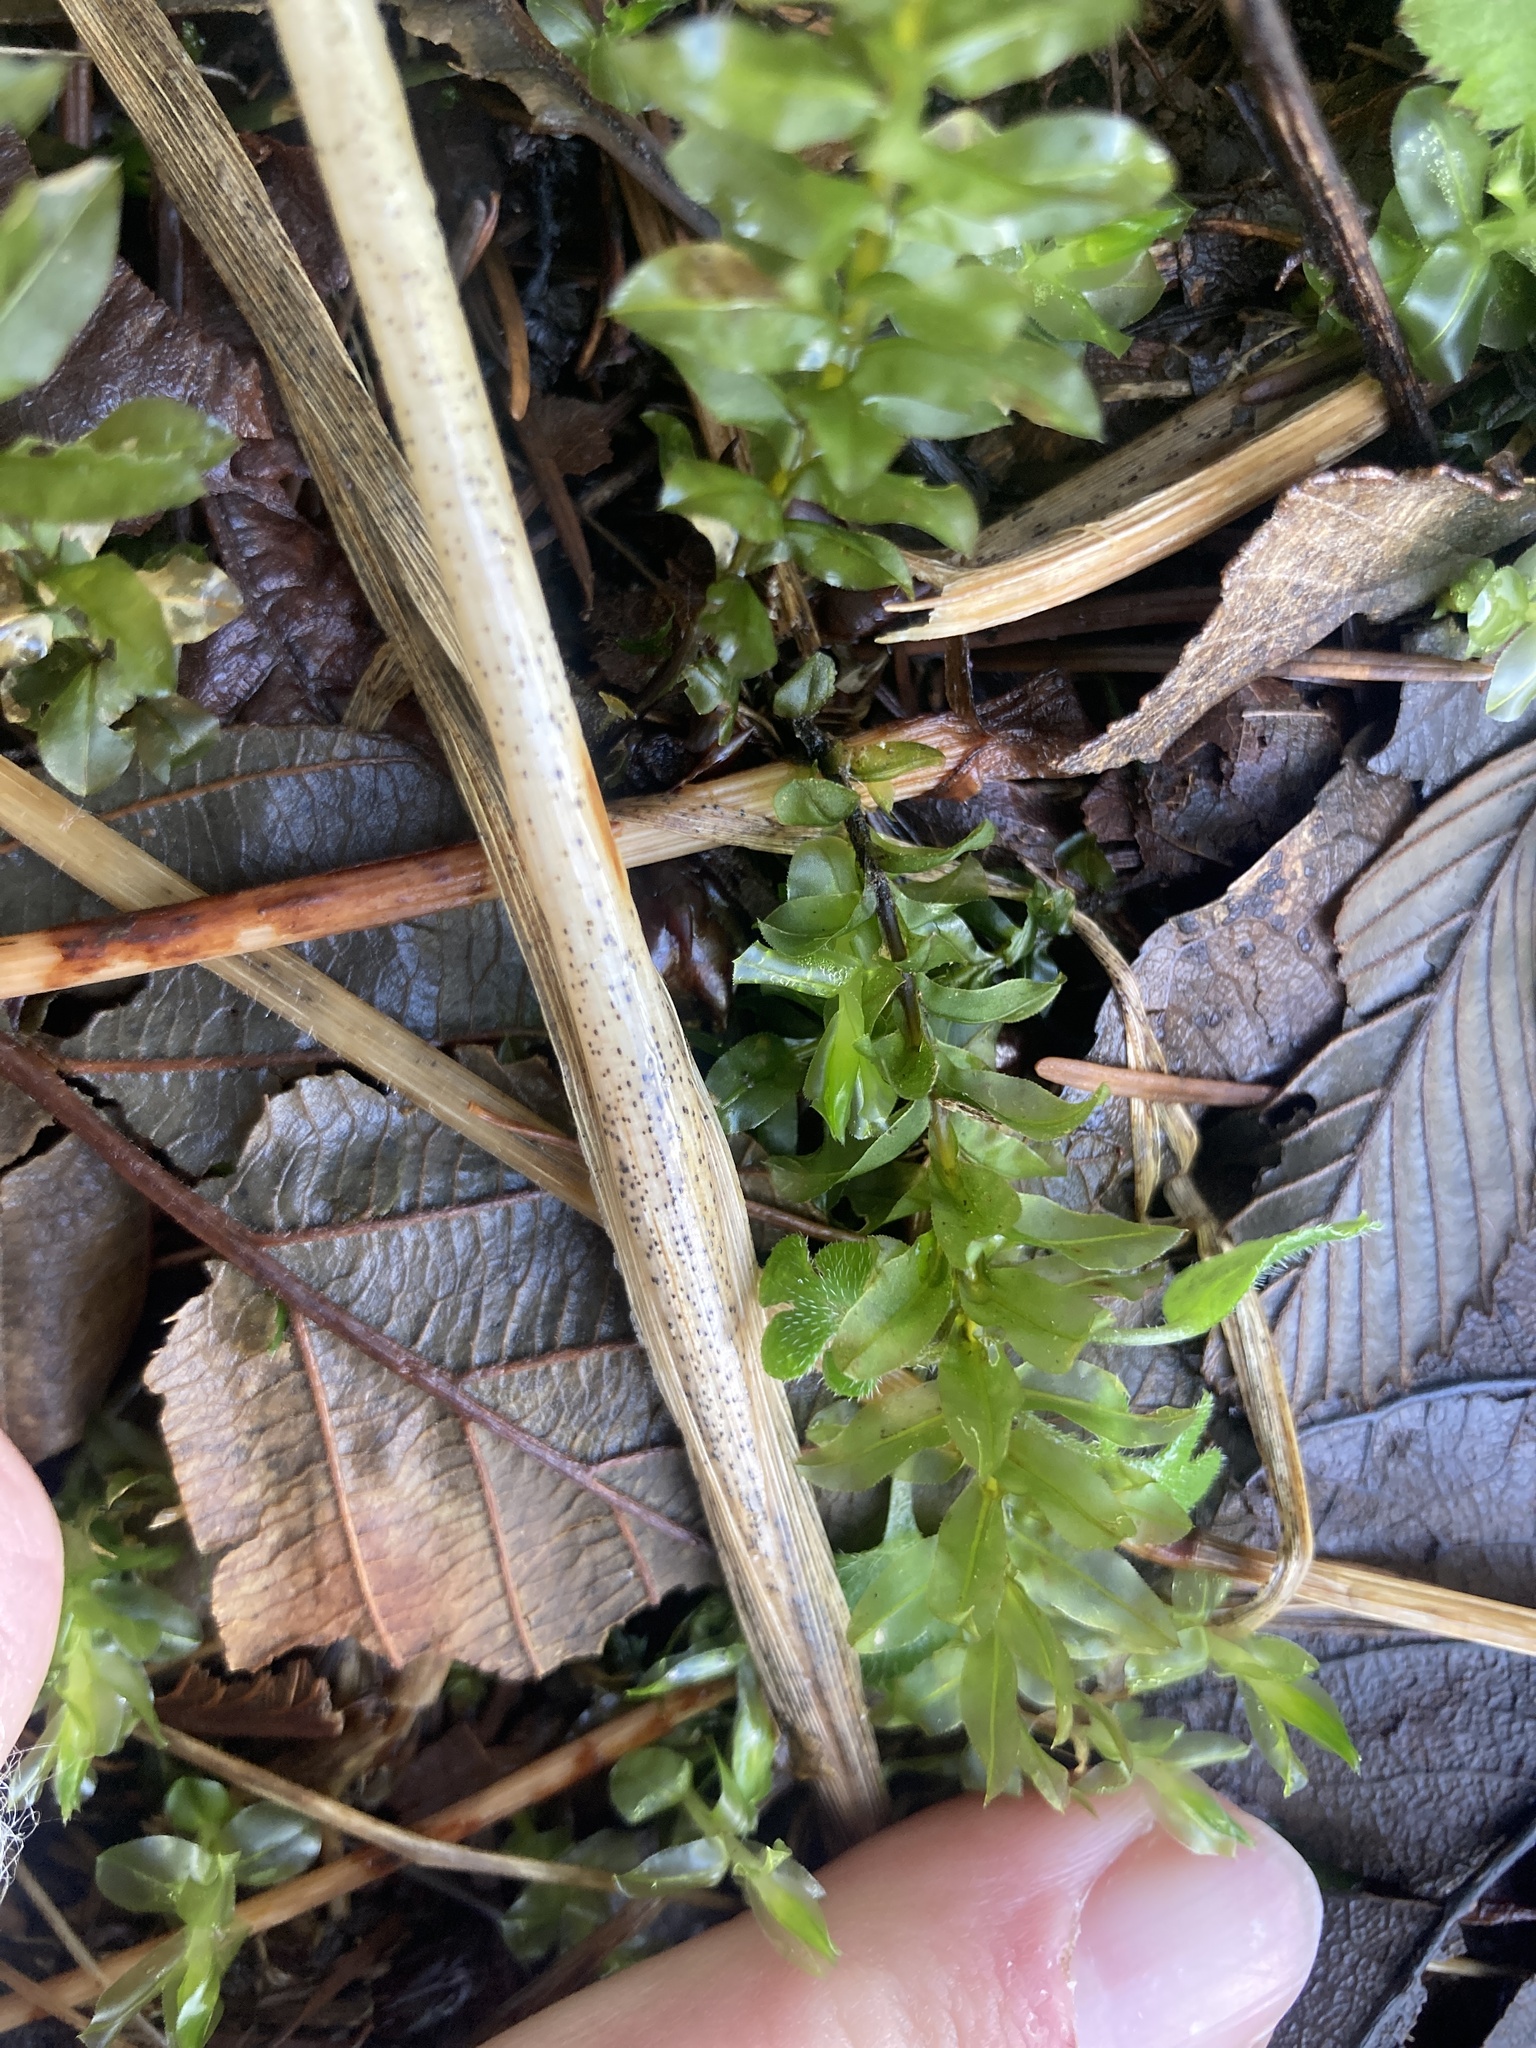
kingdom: Plantae
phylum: Bryophyta
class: Bryopsida
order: Bryales
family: Mniaceae
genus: Plagiomnium
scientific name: Plagiomnium insigne
